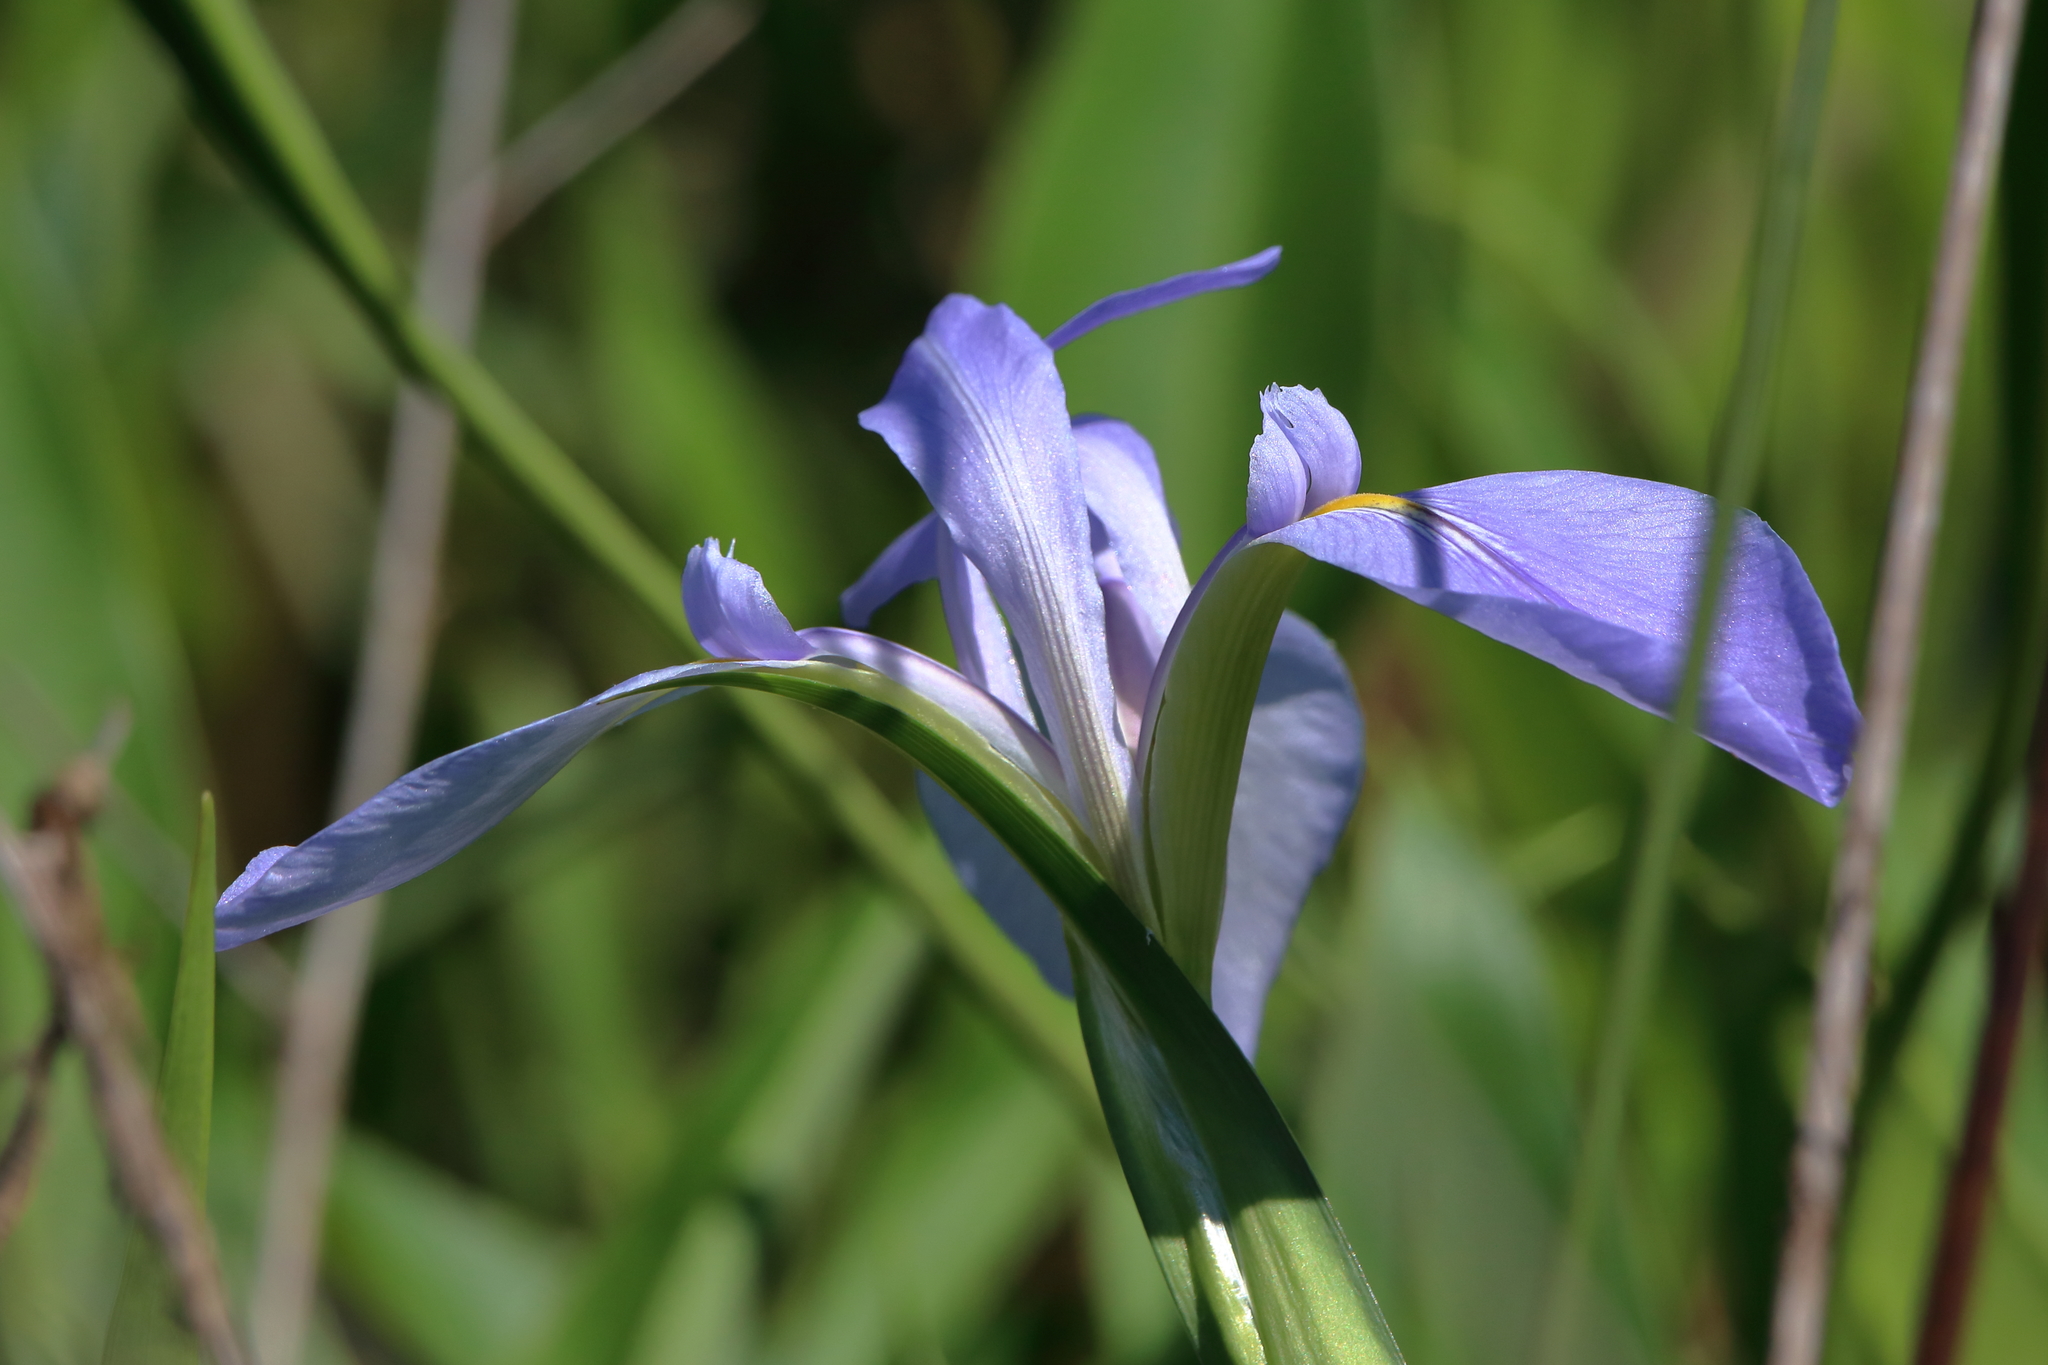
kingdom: Plantae
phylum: Tracheophyta
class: Liliopsida
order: Asparagales
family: Iridaceae
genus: Iris
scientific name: Iris giganticaerulea
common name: Giant blue iris
